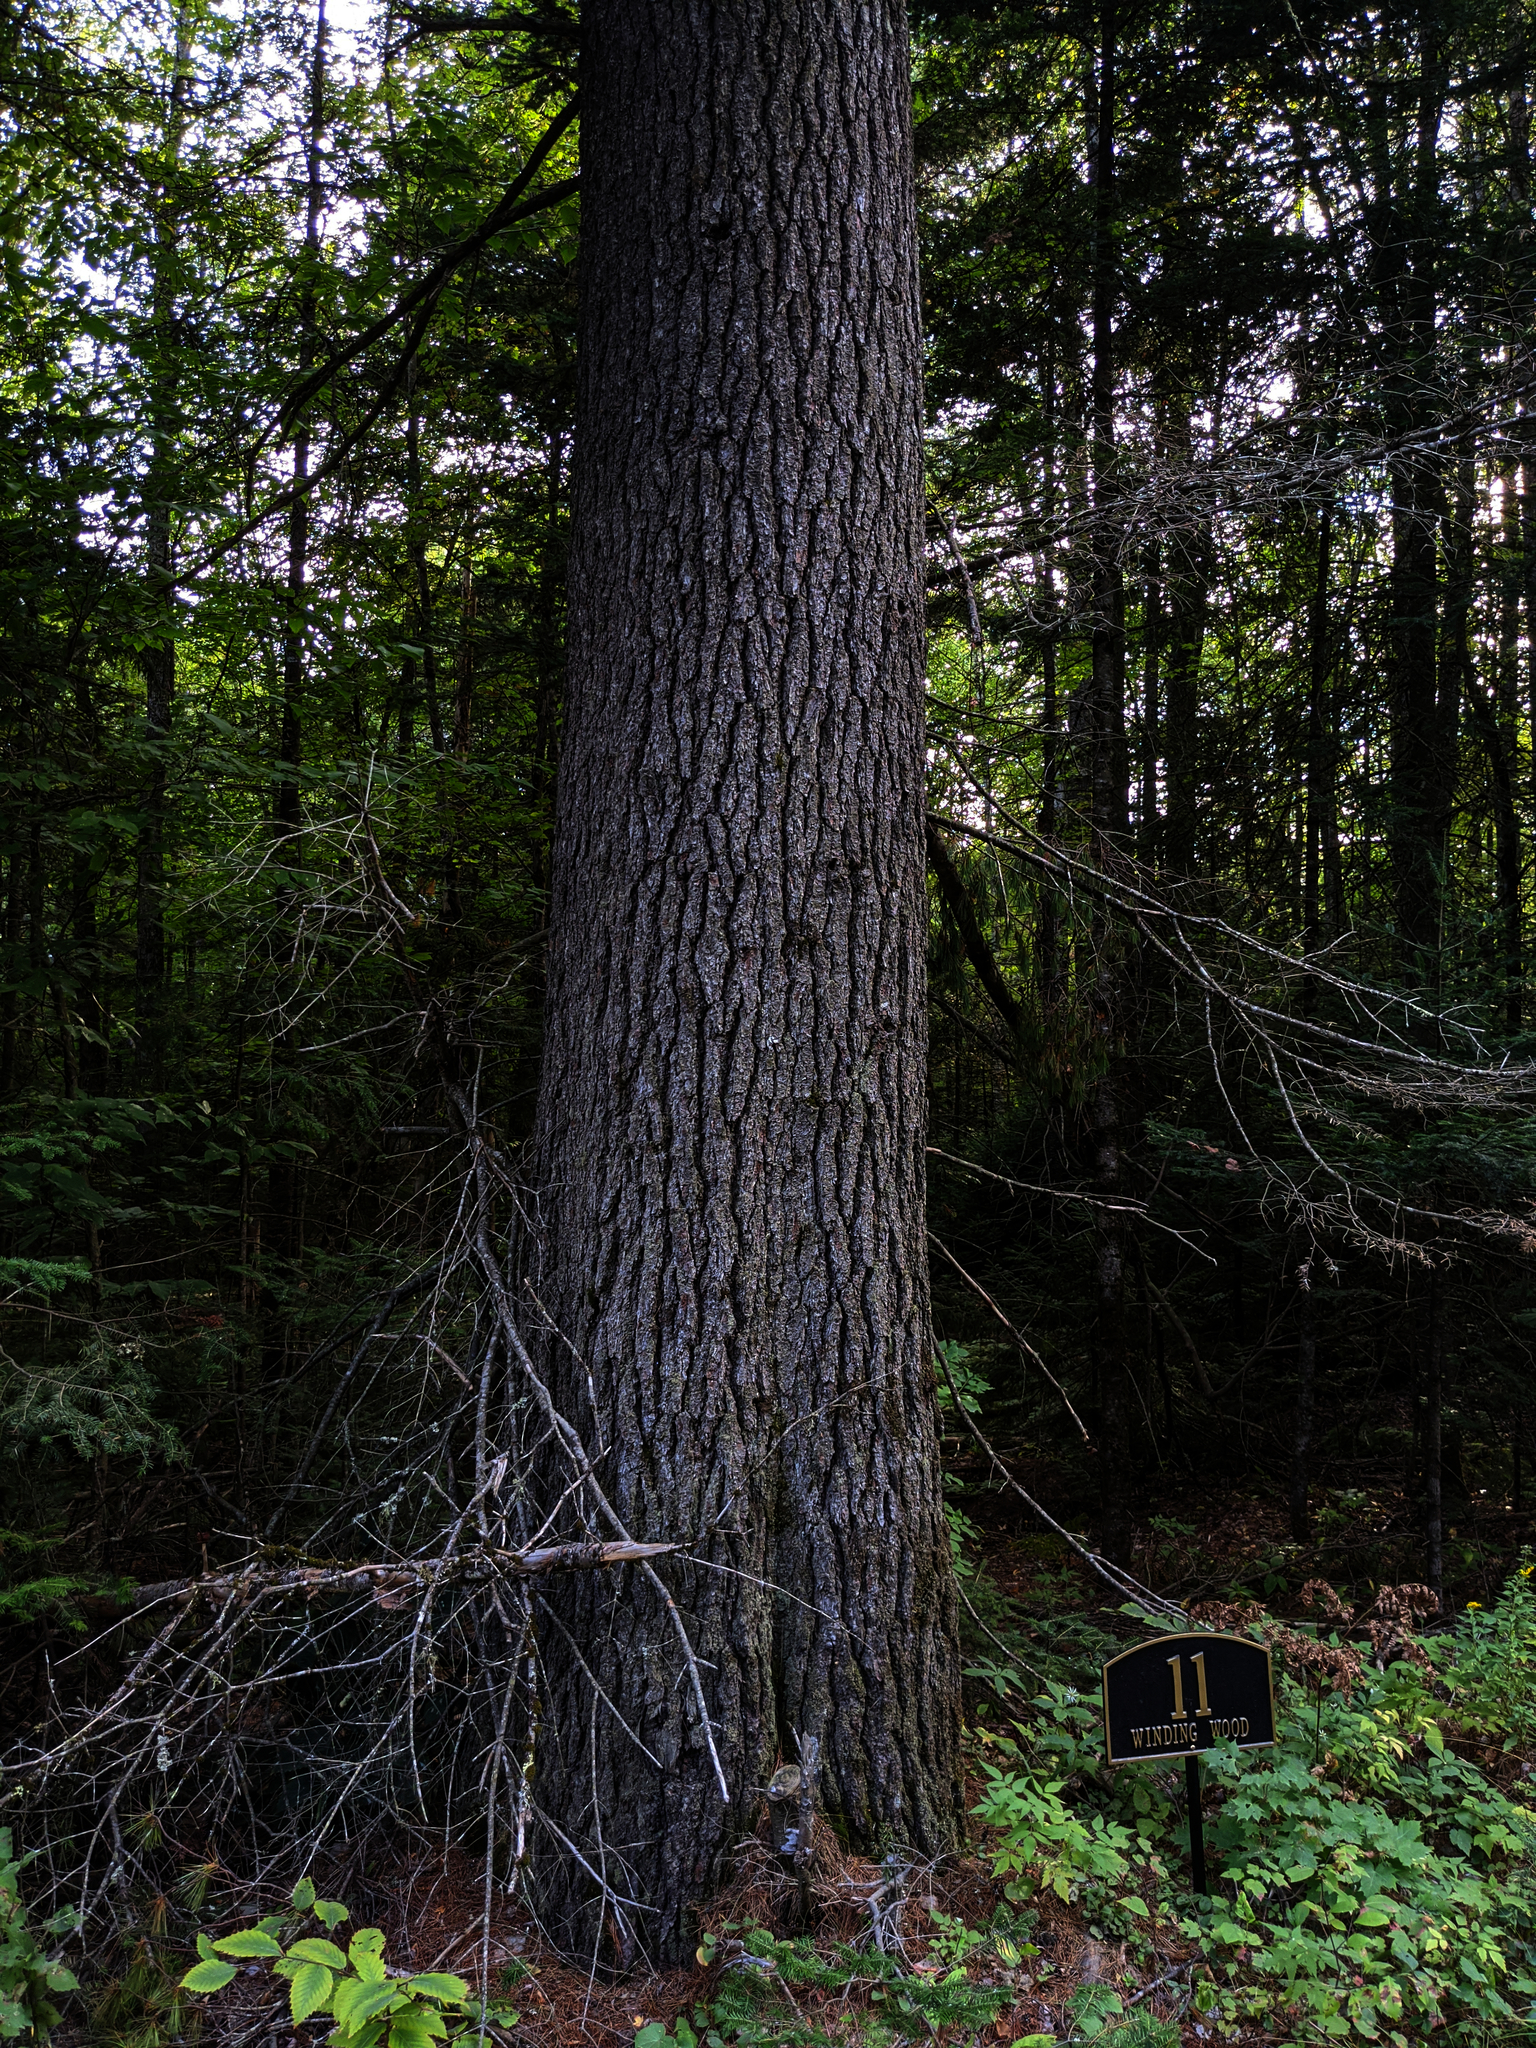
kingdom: Plantae
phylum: Tracheophyta
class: Pinopsida
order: Pinales
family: Pinaceae
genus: Pinus
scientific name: Pinus strobus
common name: Weymouth pine
